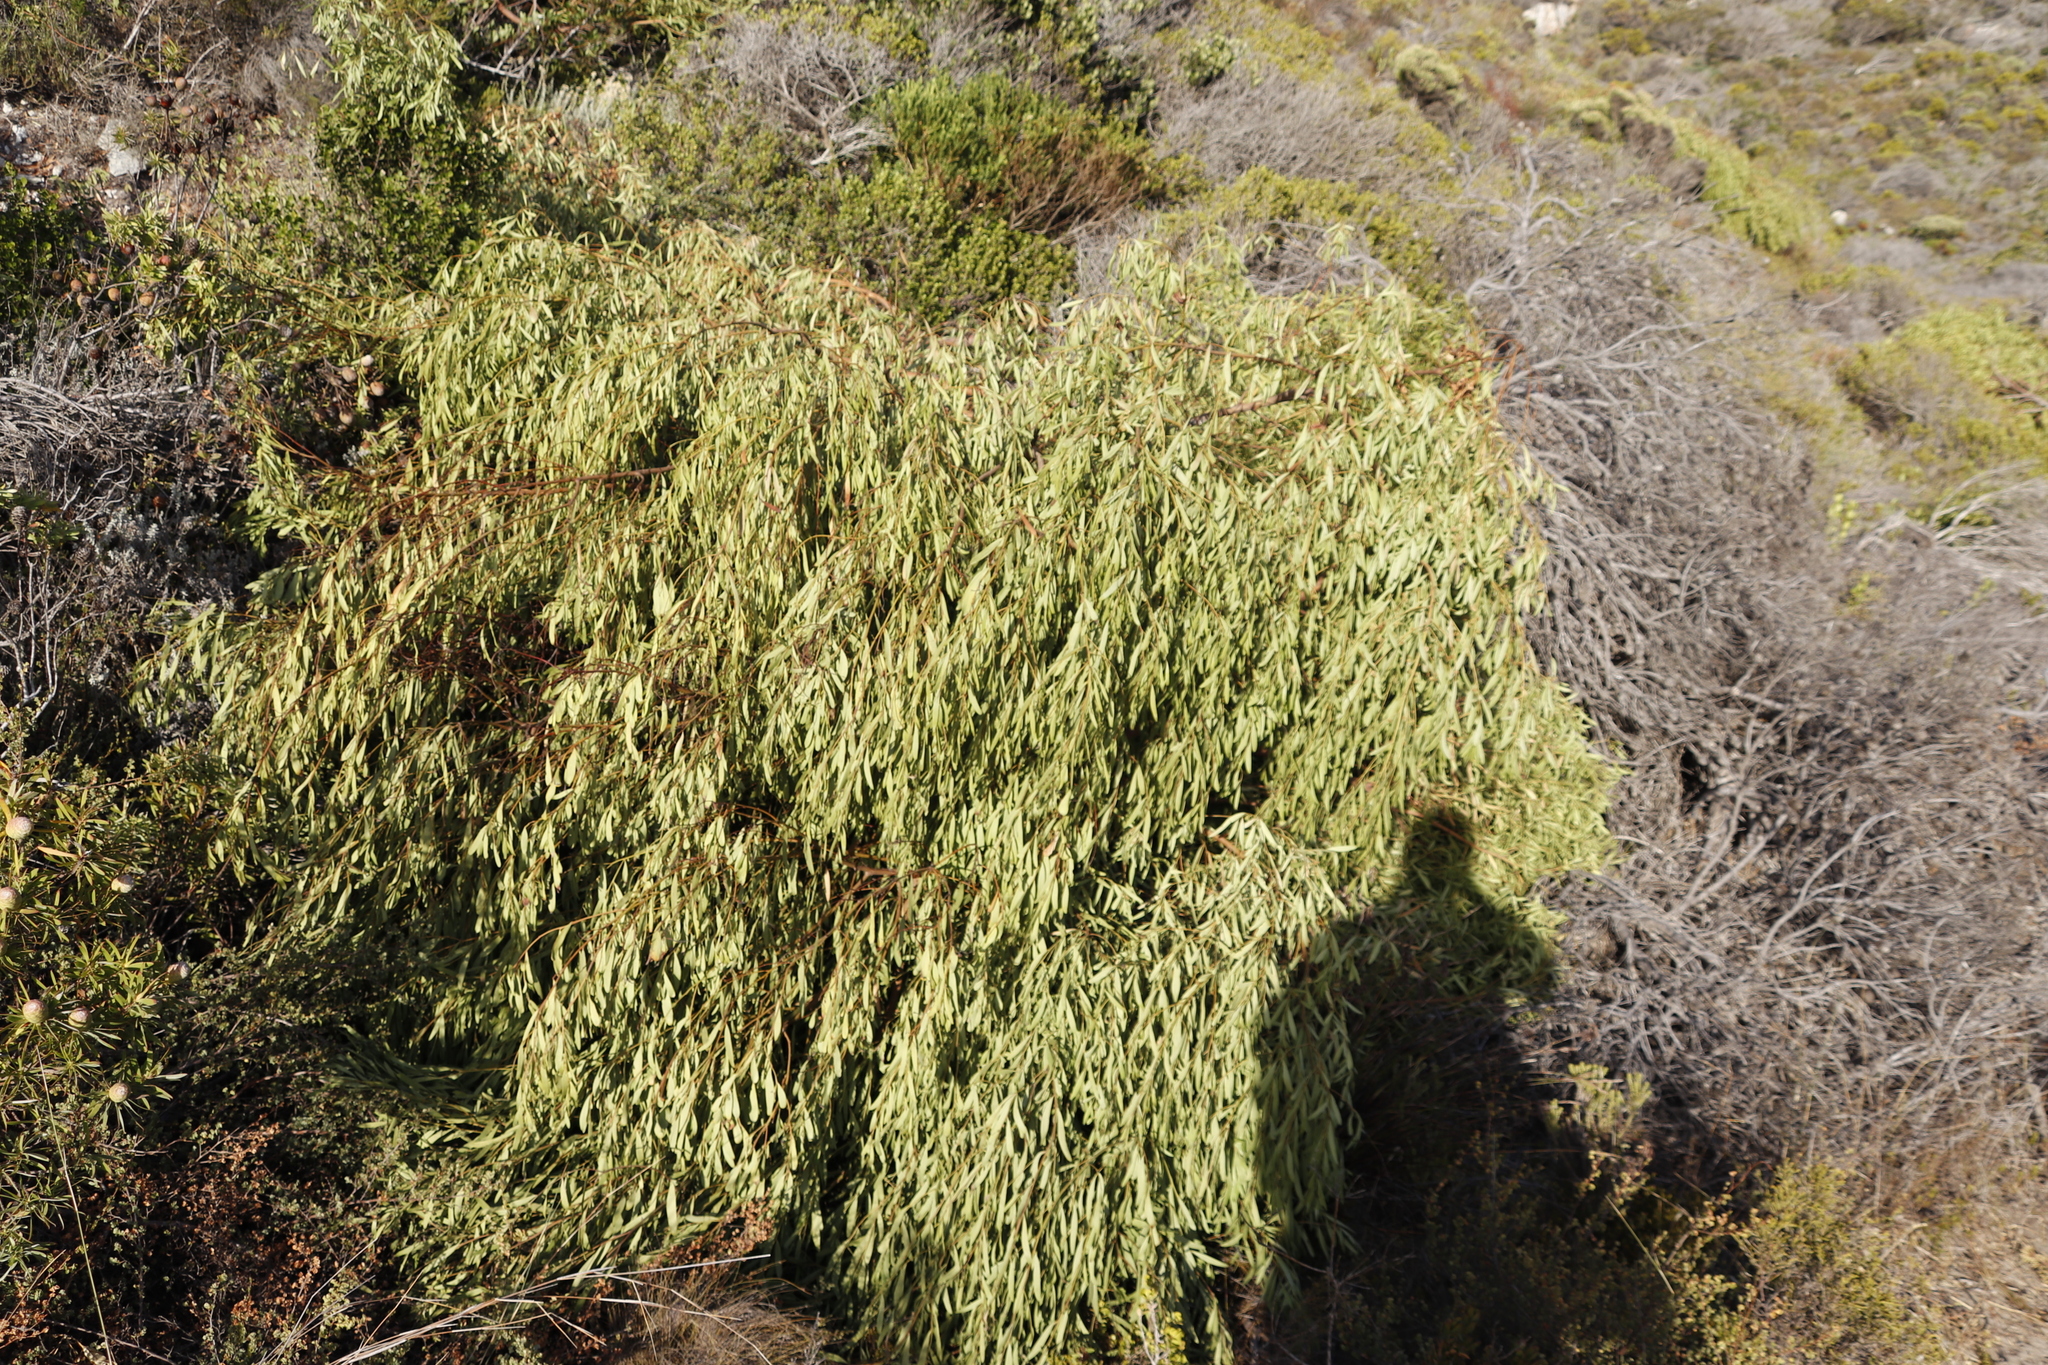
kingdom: Plantae
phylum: Tracheophyta
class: Magnoliopsida
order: Fabales
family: Fabaceae
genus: Acacia
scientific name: Acacia cyclops
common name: Coastal wattle
